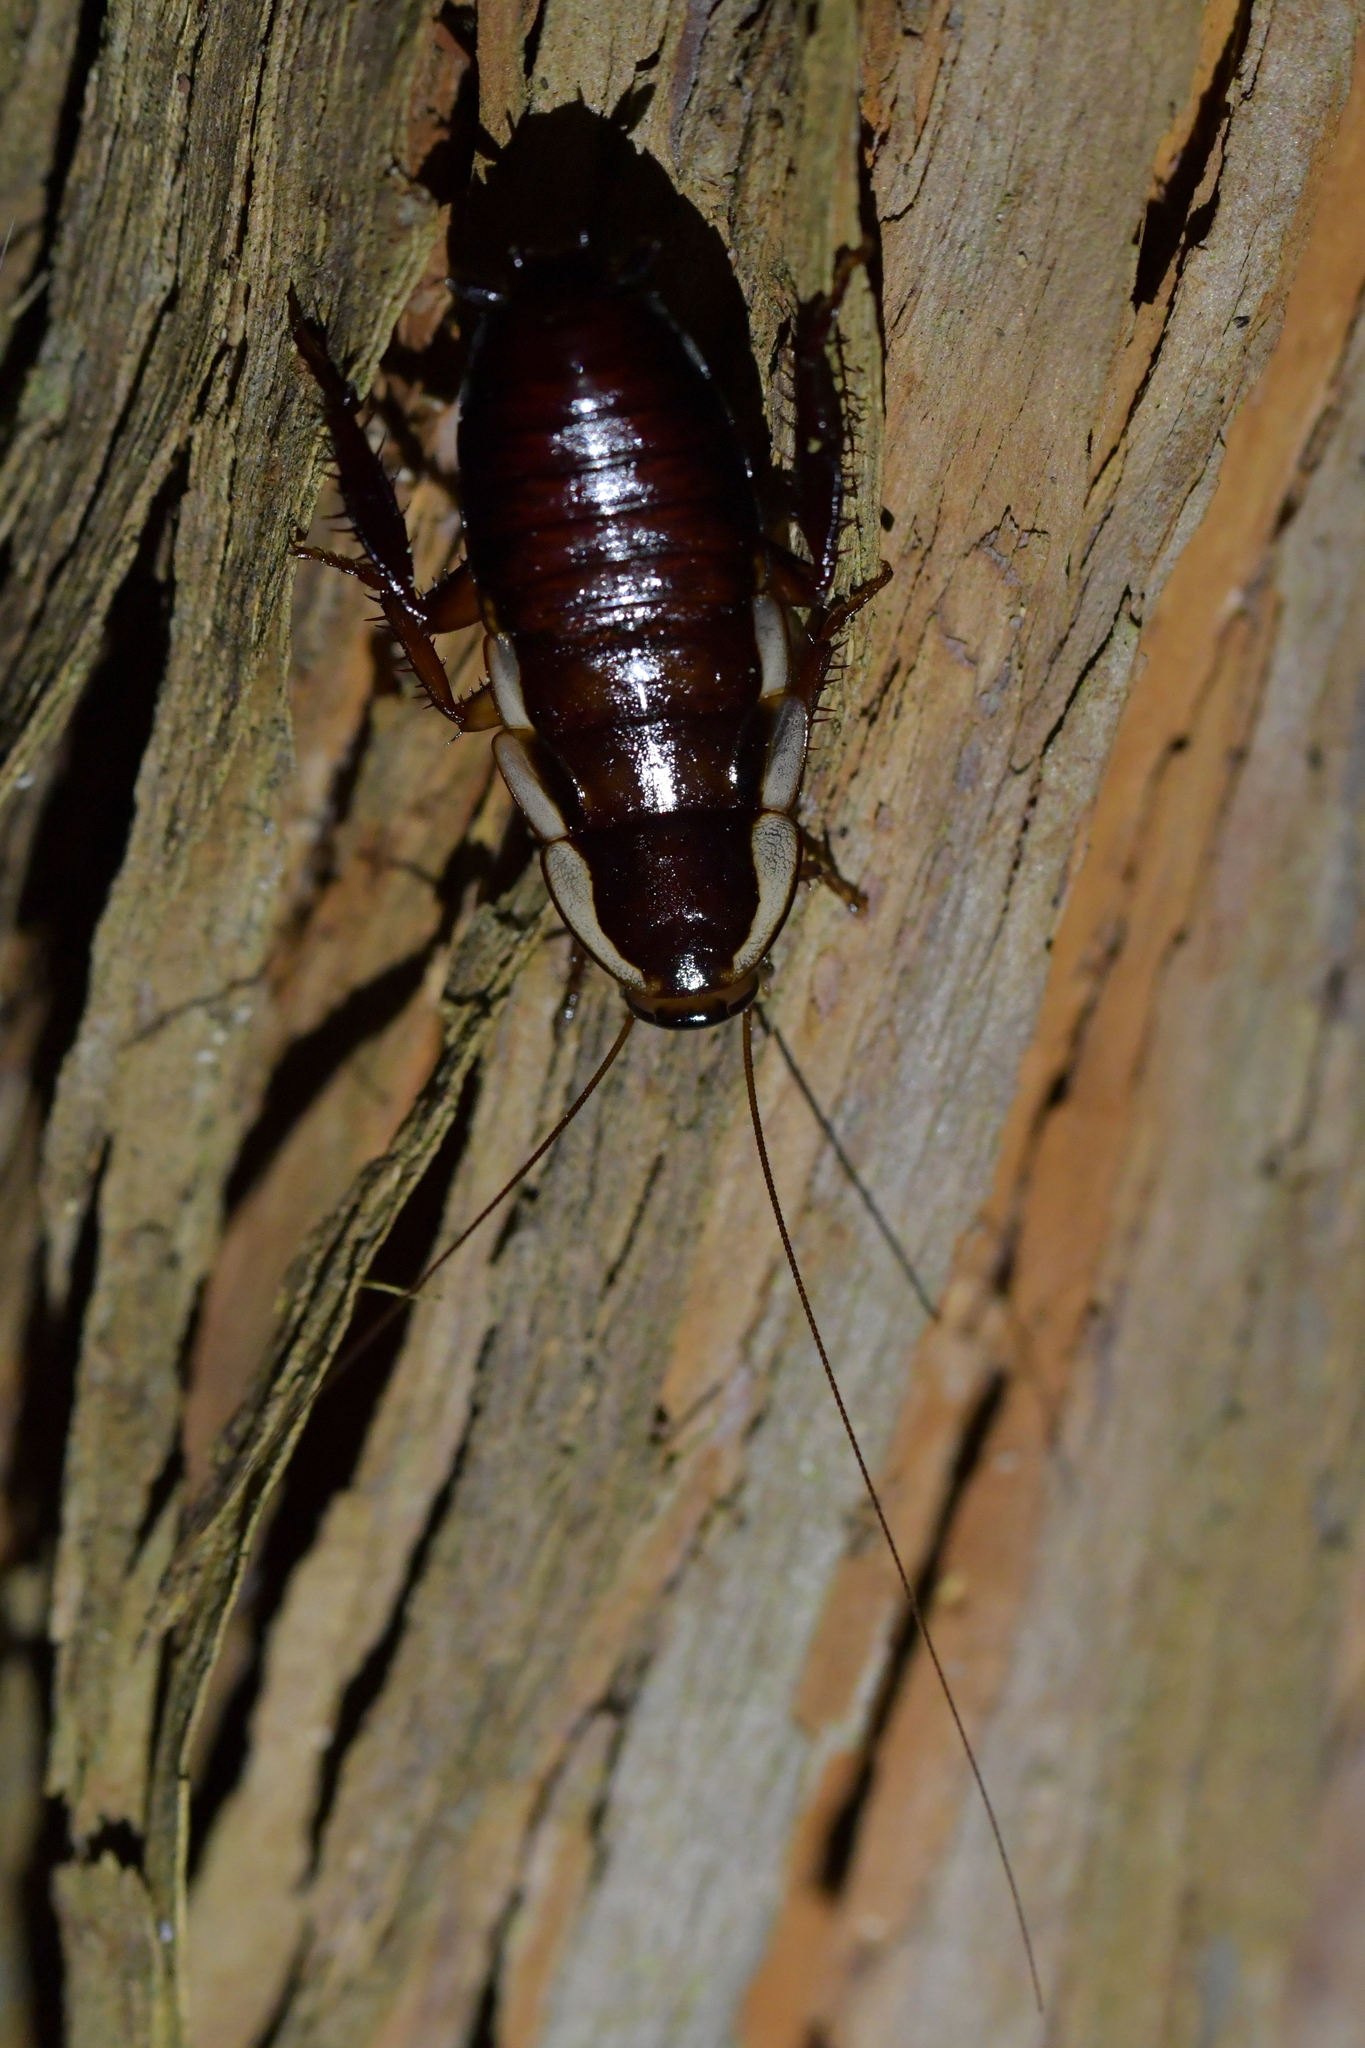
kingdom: Animalia
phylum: Arthropoda
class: Insecta
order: Blattodea
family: Blattidae
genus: Drymaplaneta
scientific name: Drymaplaneta semivitta
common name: Gisborne cockroach
